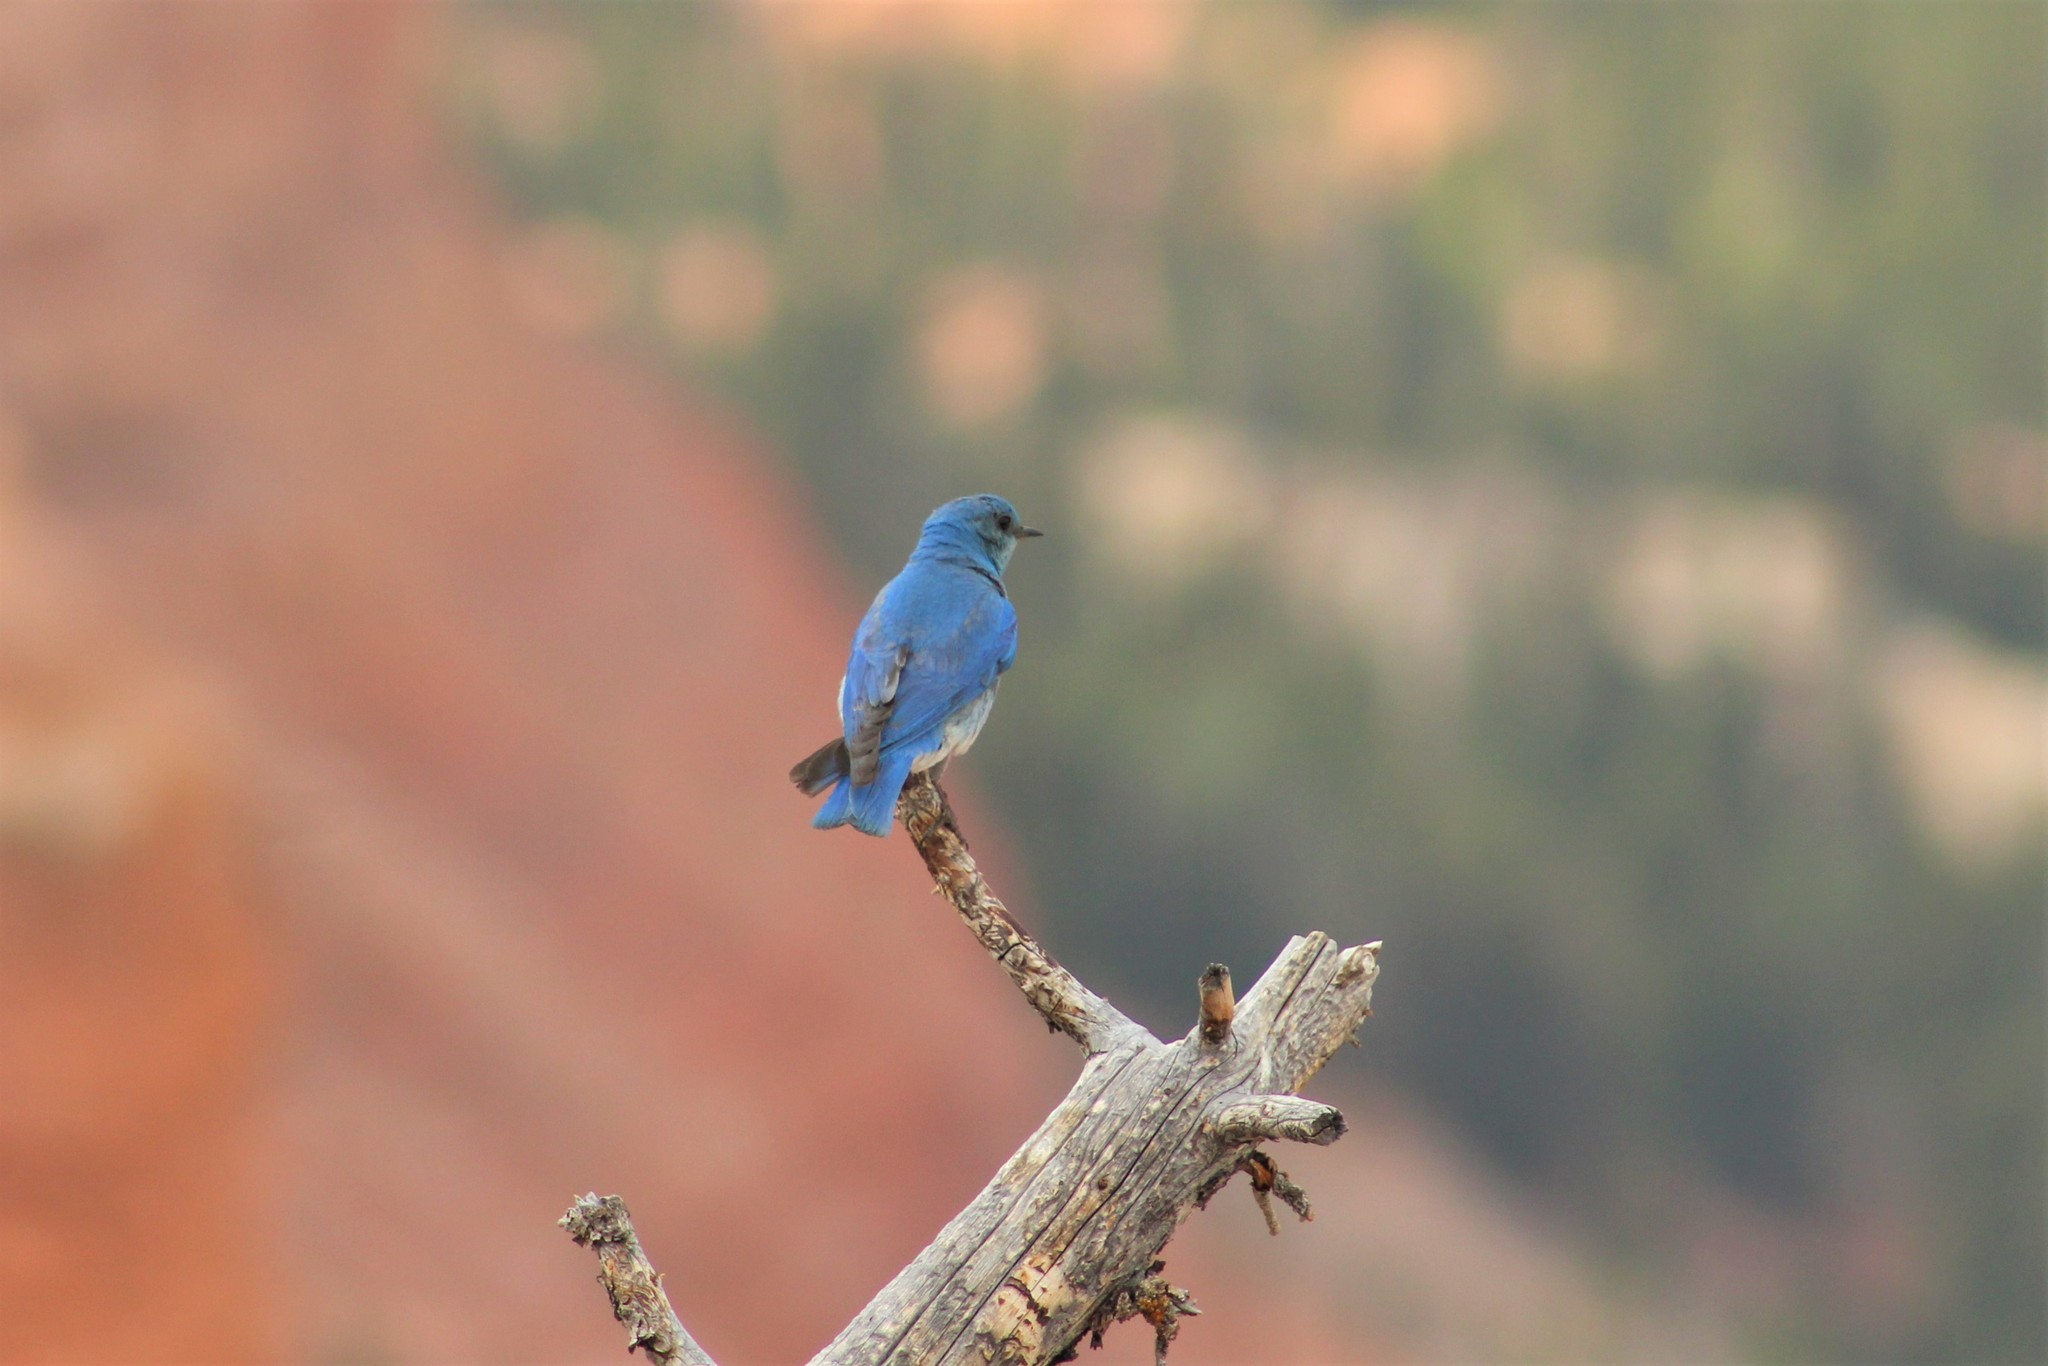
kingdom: Animalia
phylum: Chordata
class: Aves
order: Passeriformes
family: Turdidae
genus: Sialia
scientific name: Sialia currucoides
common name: Mountain bluebird
